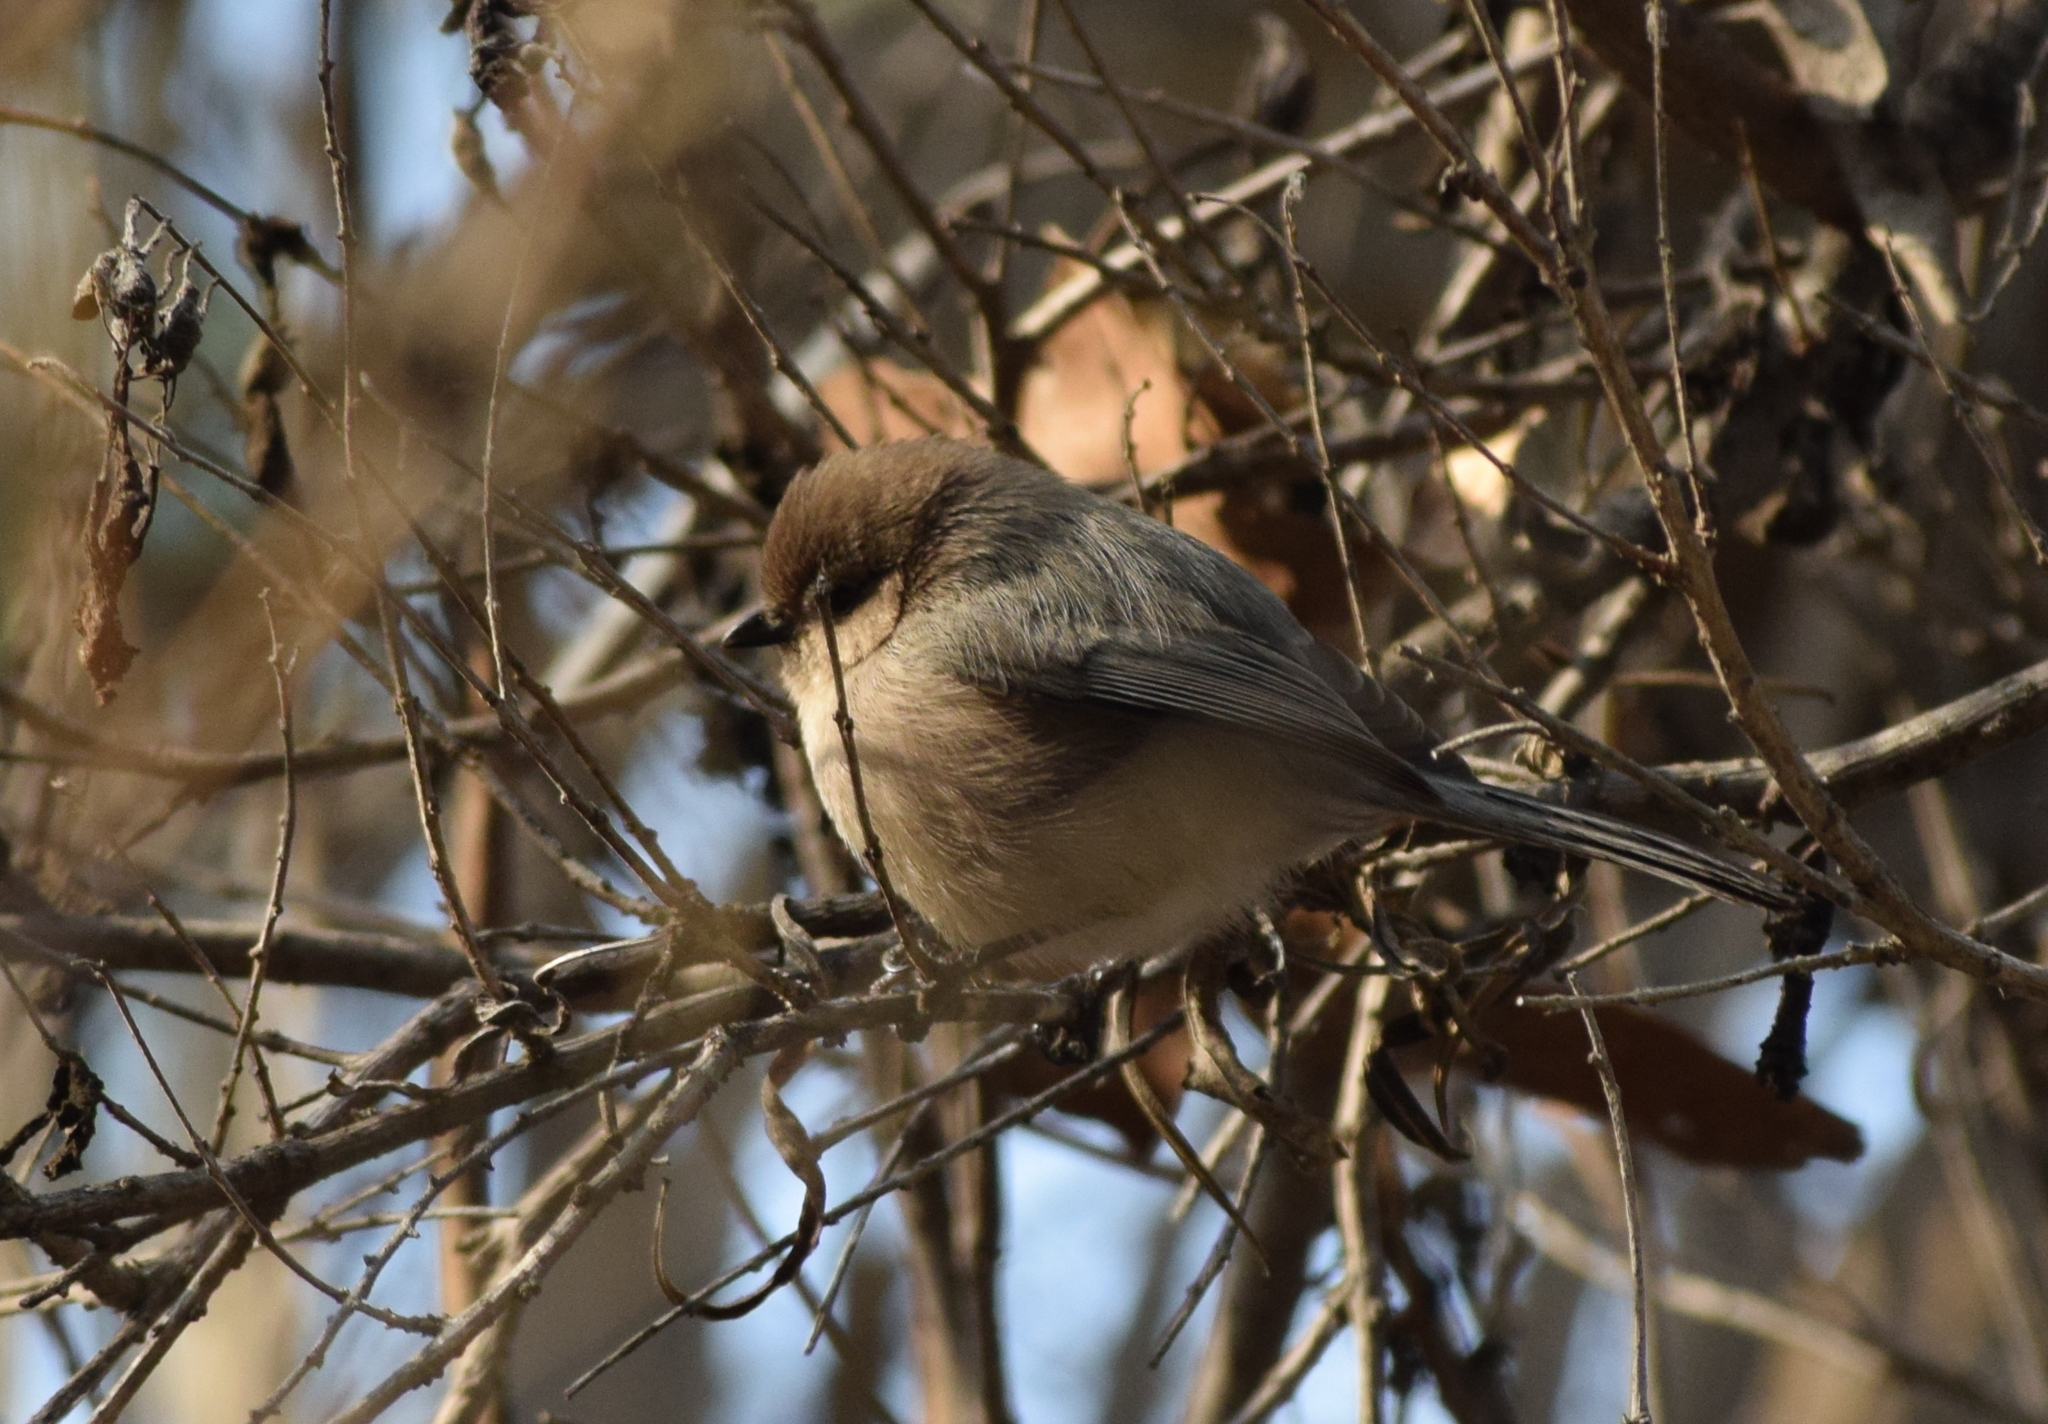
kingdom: Animalia
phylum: Chordata
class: Aves
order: Passeriformes
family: Aegithalidae
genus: Psaltriparus
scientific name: Psaltriparus minimus
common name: American bushtit
